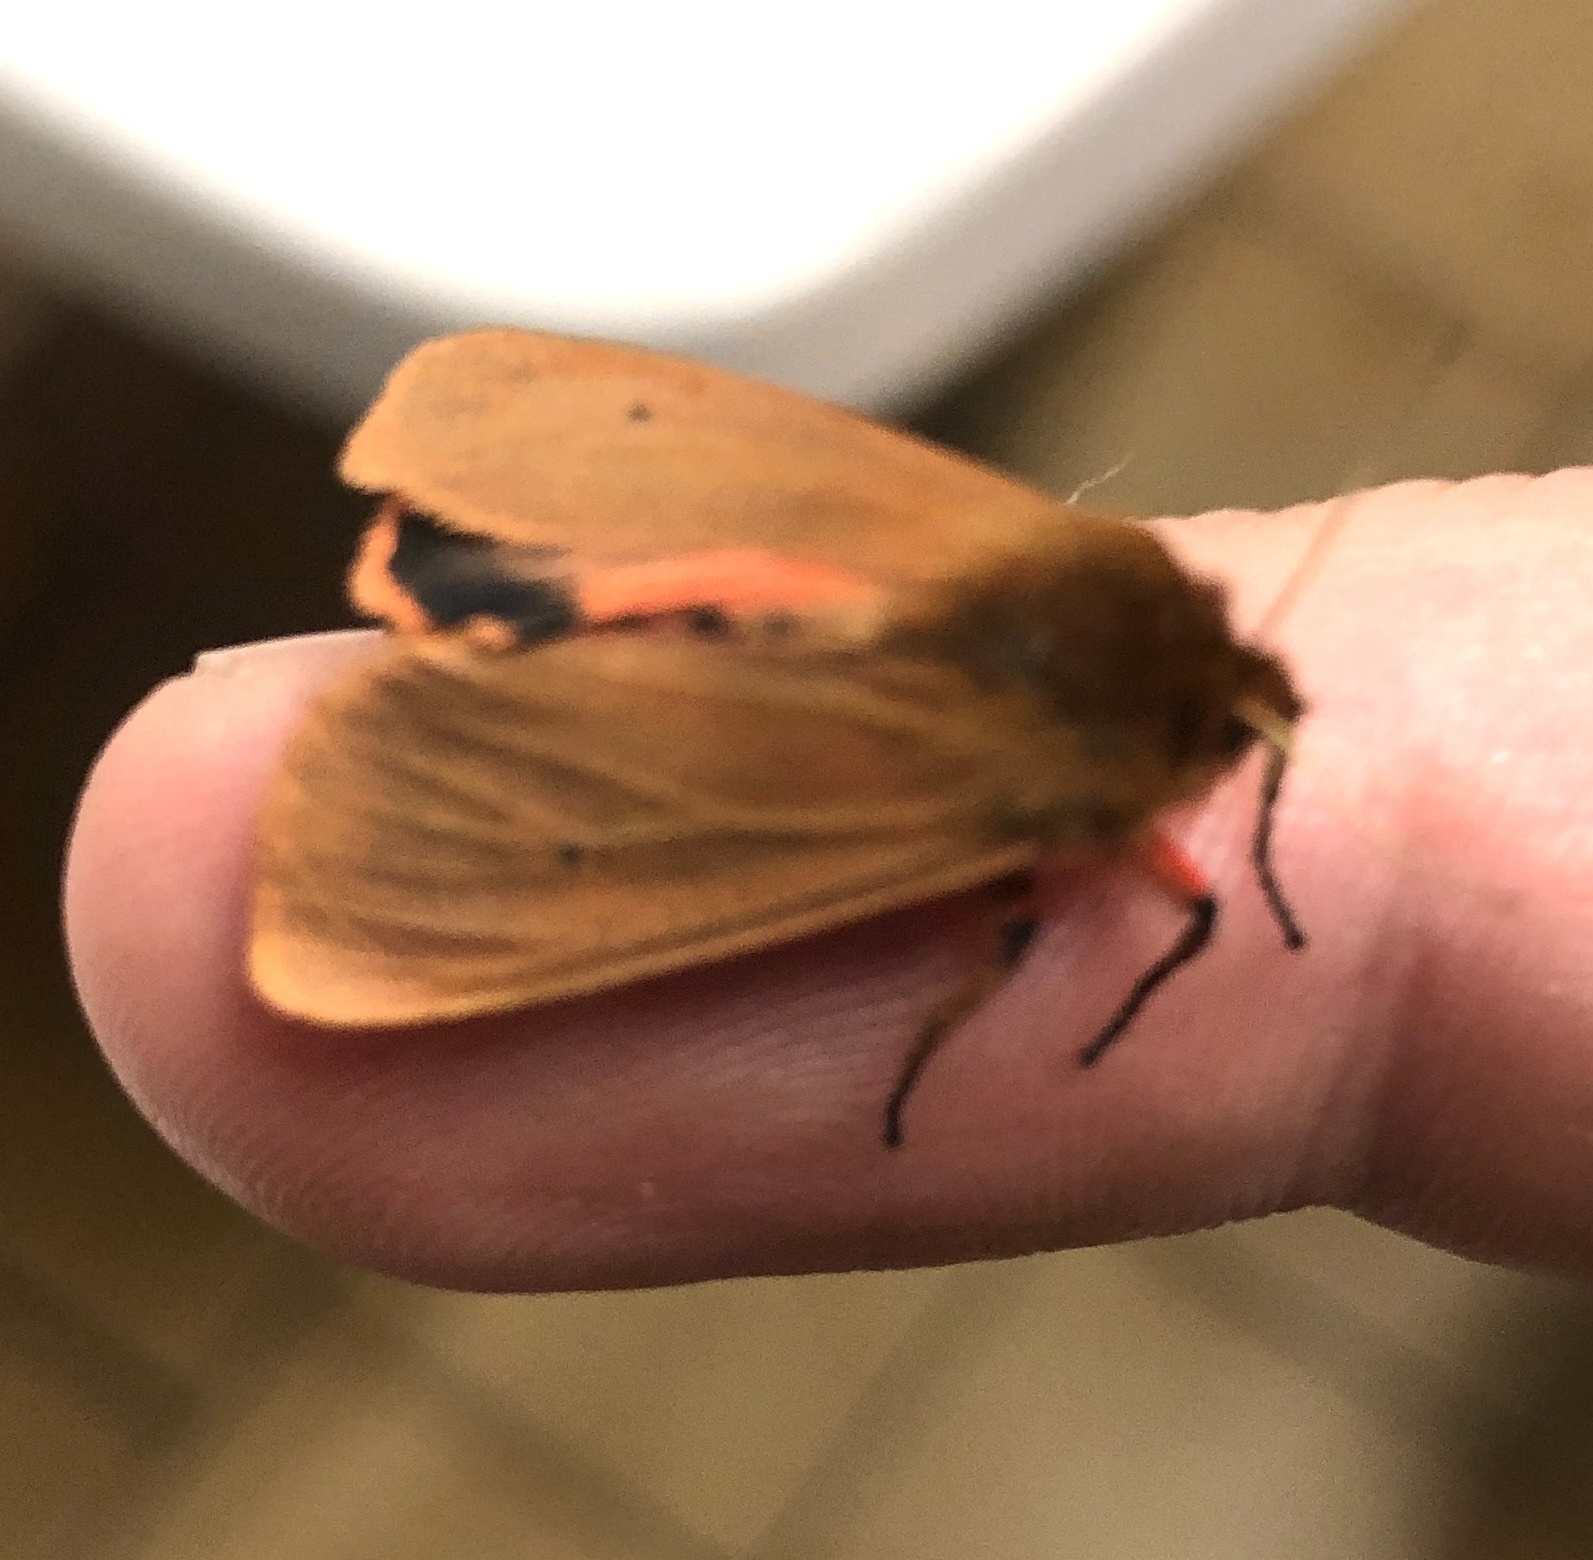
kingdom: Animalia
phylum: Arthropoda
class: Insecta
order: Lepidoptera
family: Erebidae
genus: Phragmatobia
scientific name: Phragmatobia fuliginosa
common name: Ruby tiger
